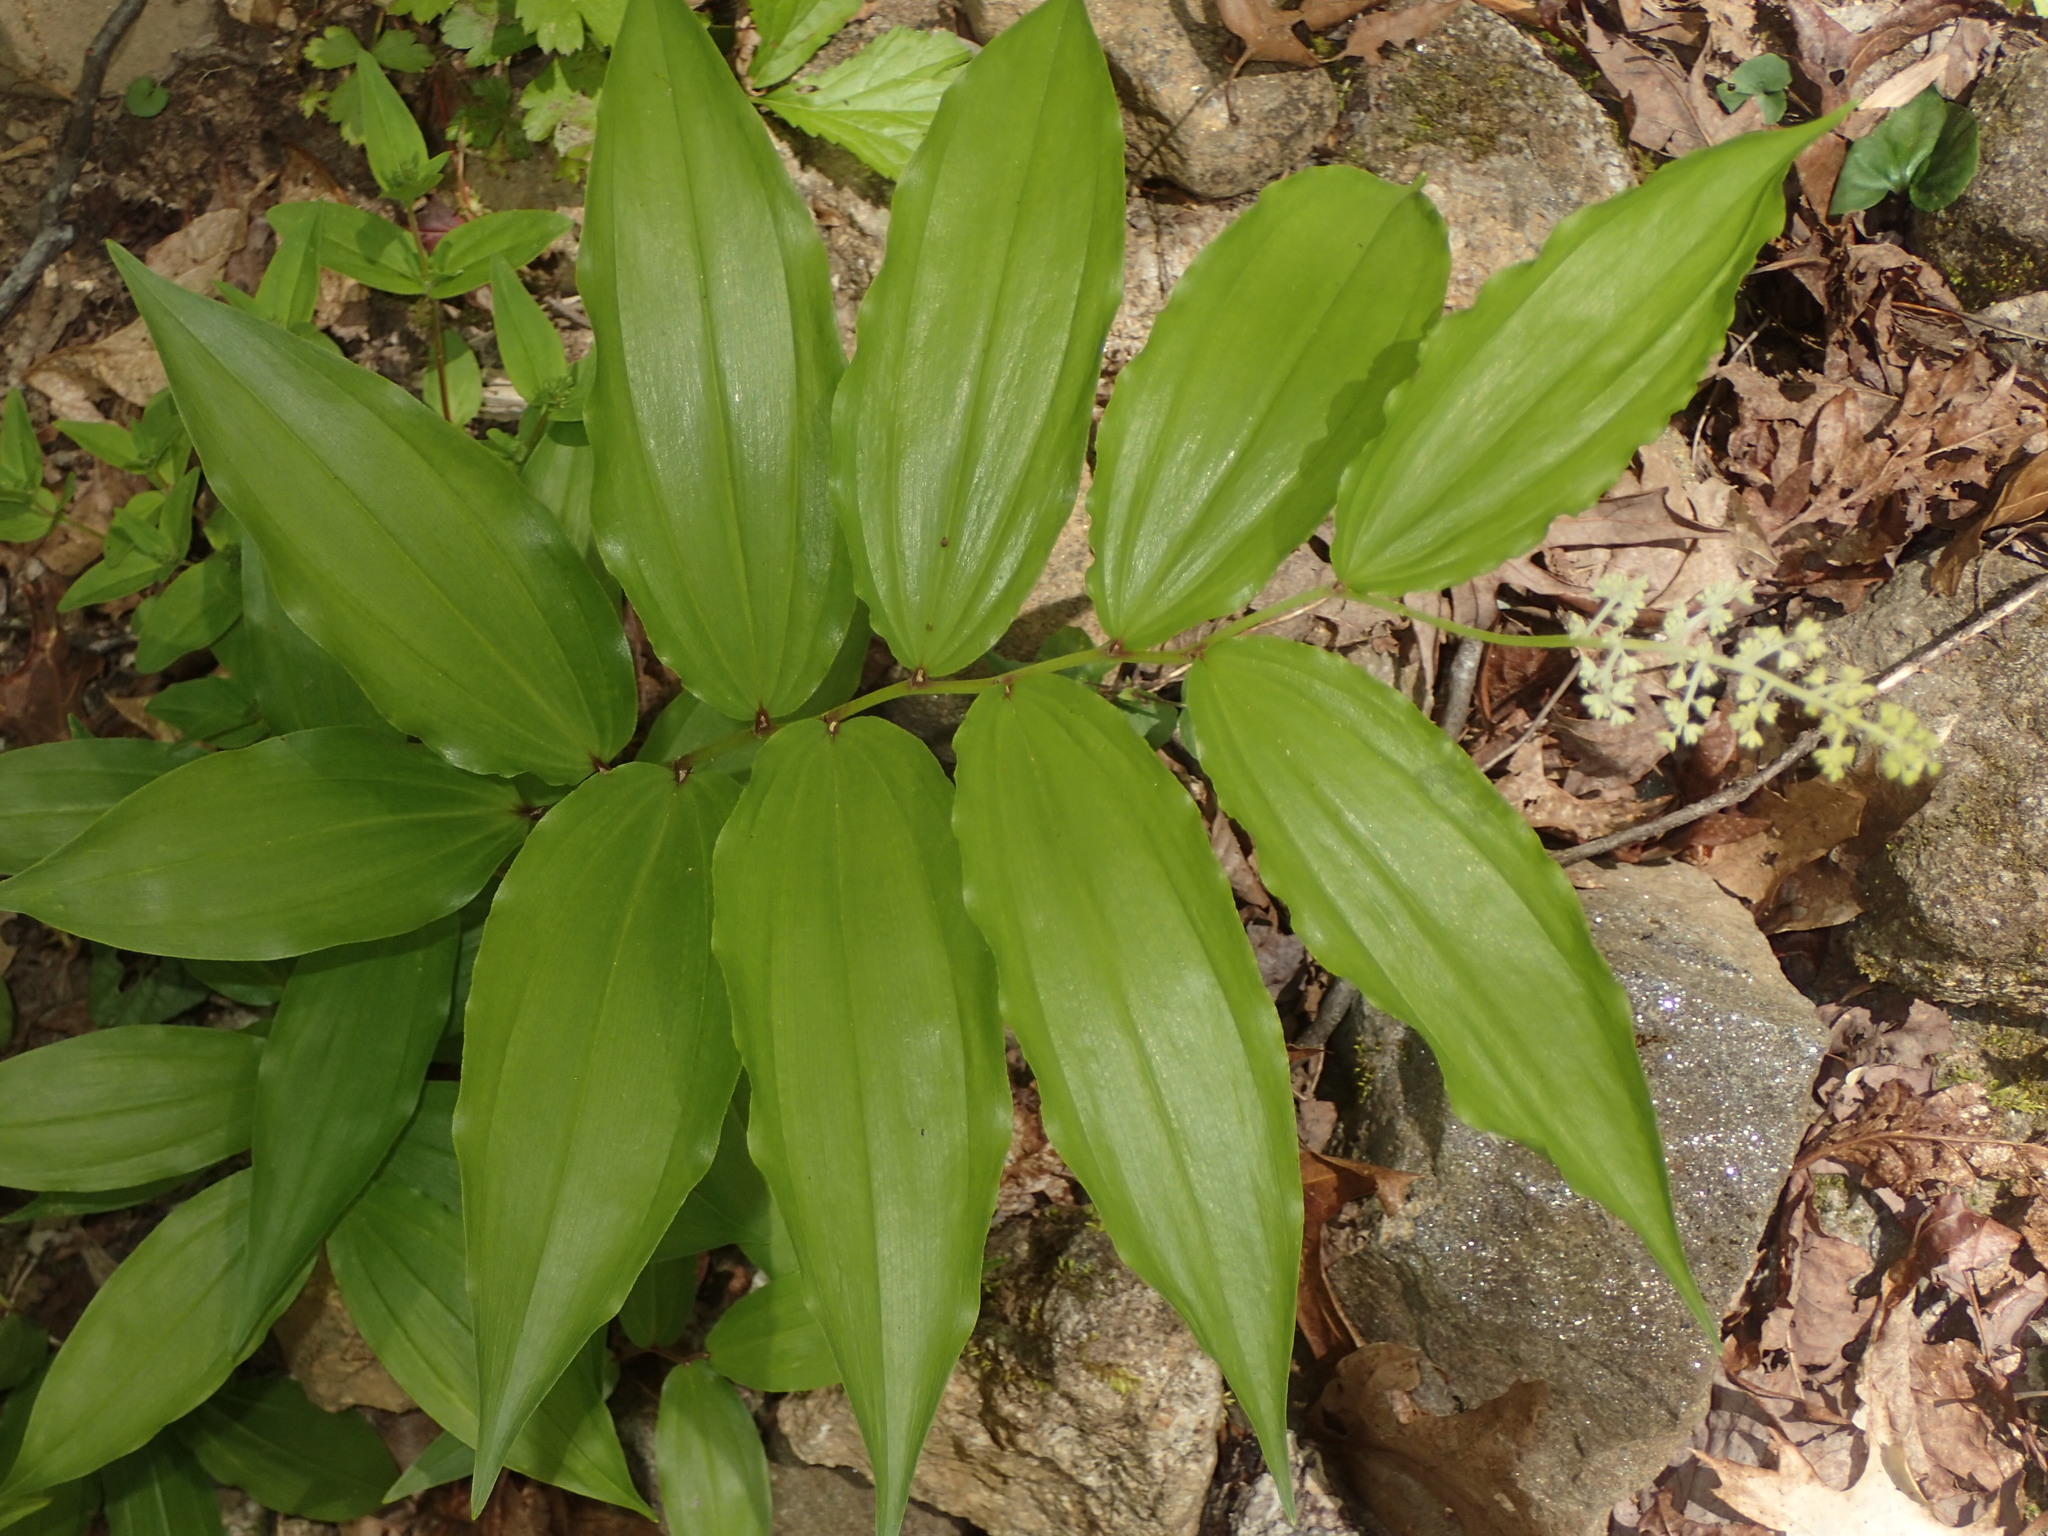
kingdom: Plantae
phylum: Tracheophyta
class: Liliopsida
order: Asparagales
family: Asparagaceae
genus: Maianthemum
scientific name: Maianthemum racemosum
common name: False spikenard
